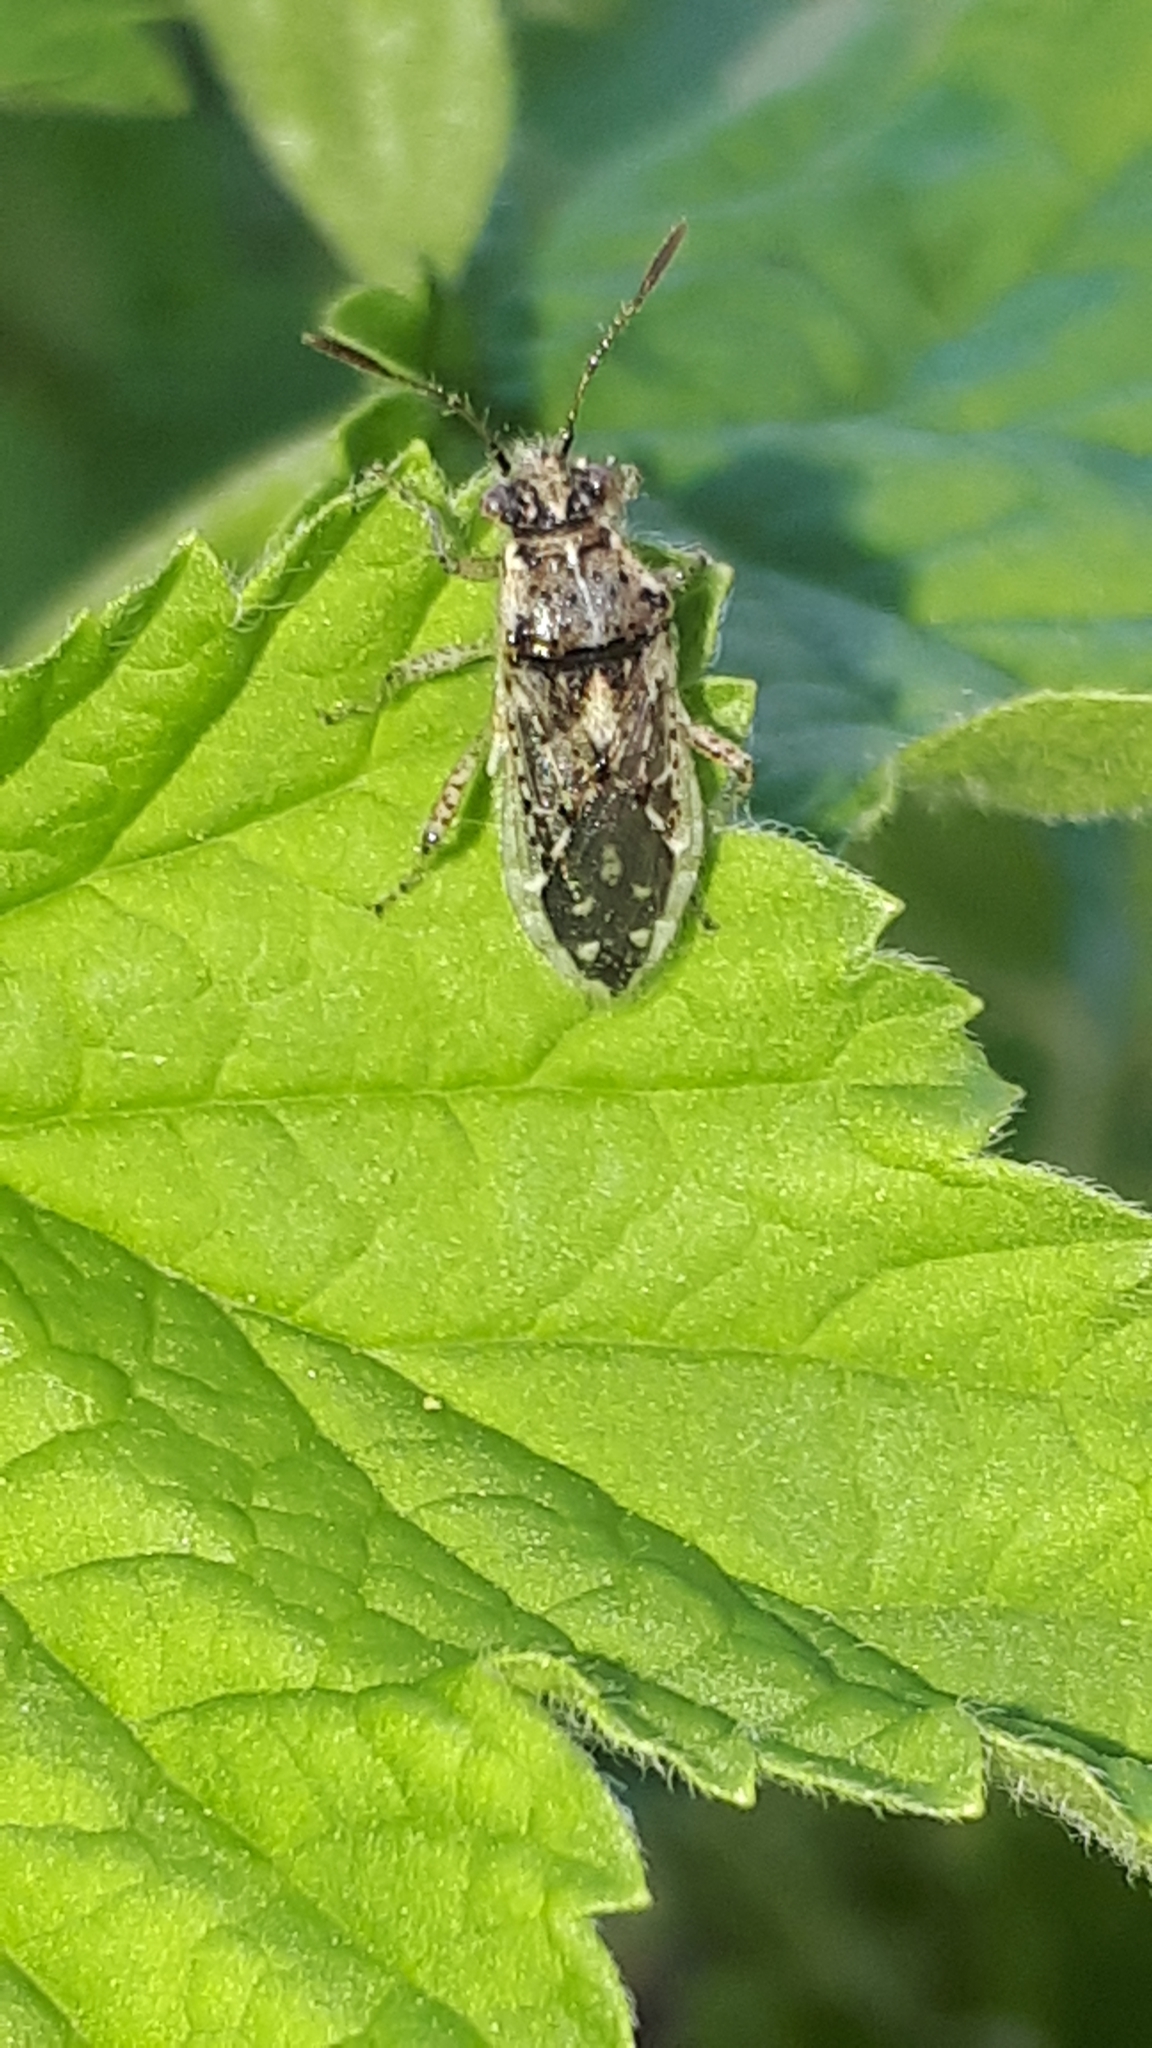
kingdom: Animalia
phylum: Arthropoda
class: Insecta
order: Hemiptera
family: Rhopalidae
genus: Brachycarenus
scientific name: Brachycarenus tigrinus
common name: Scentless plant bug
